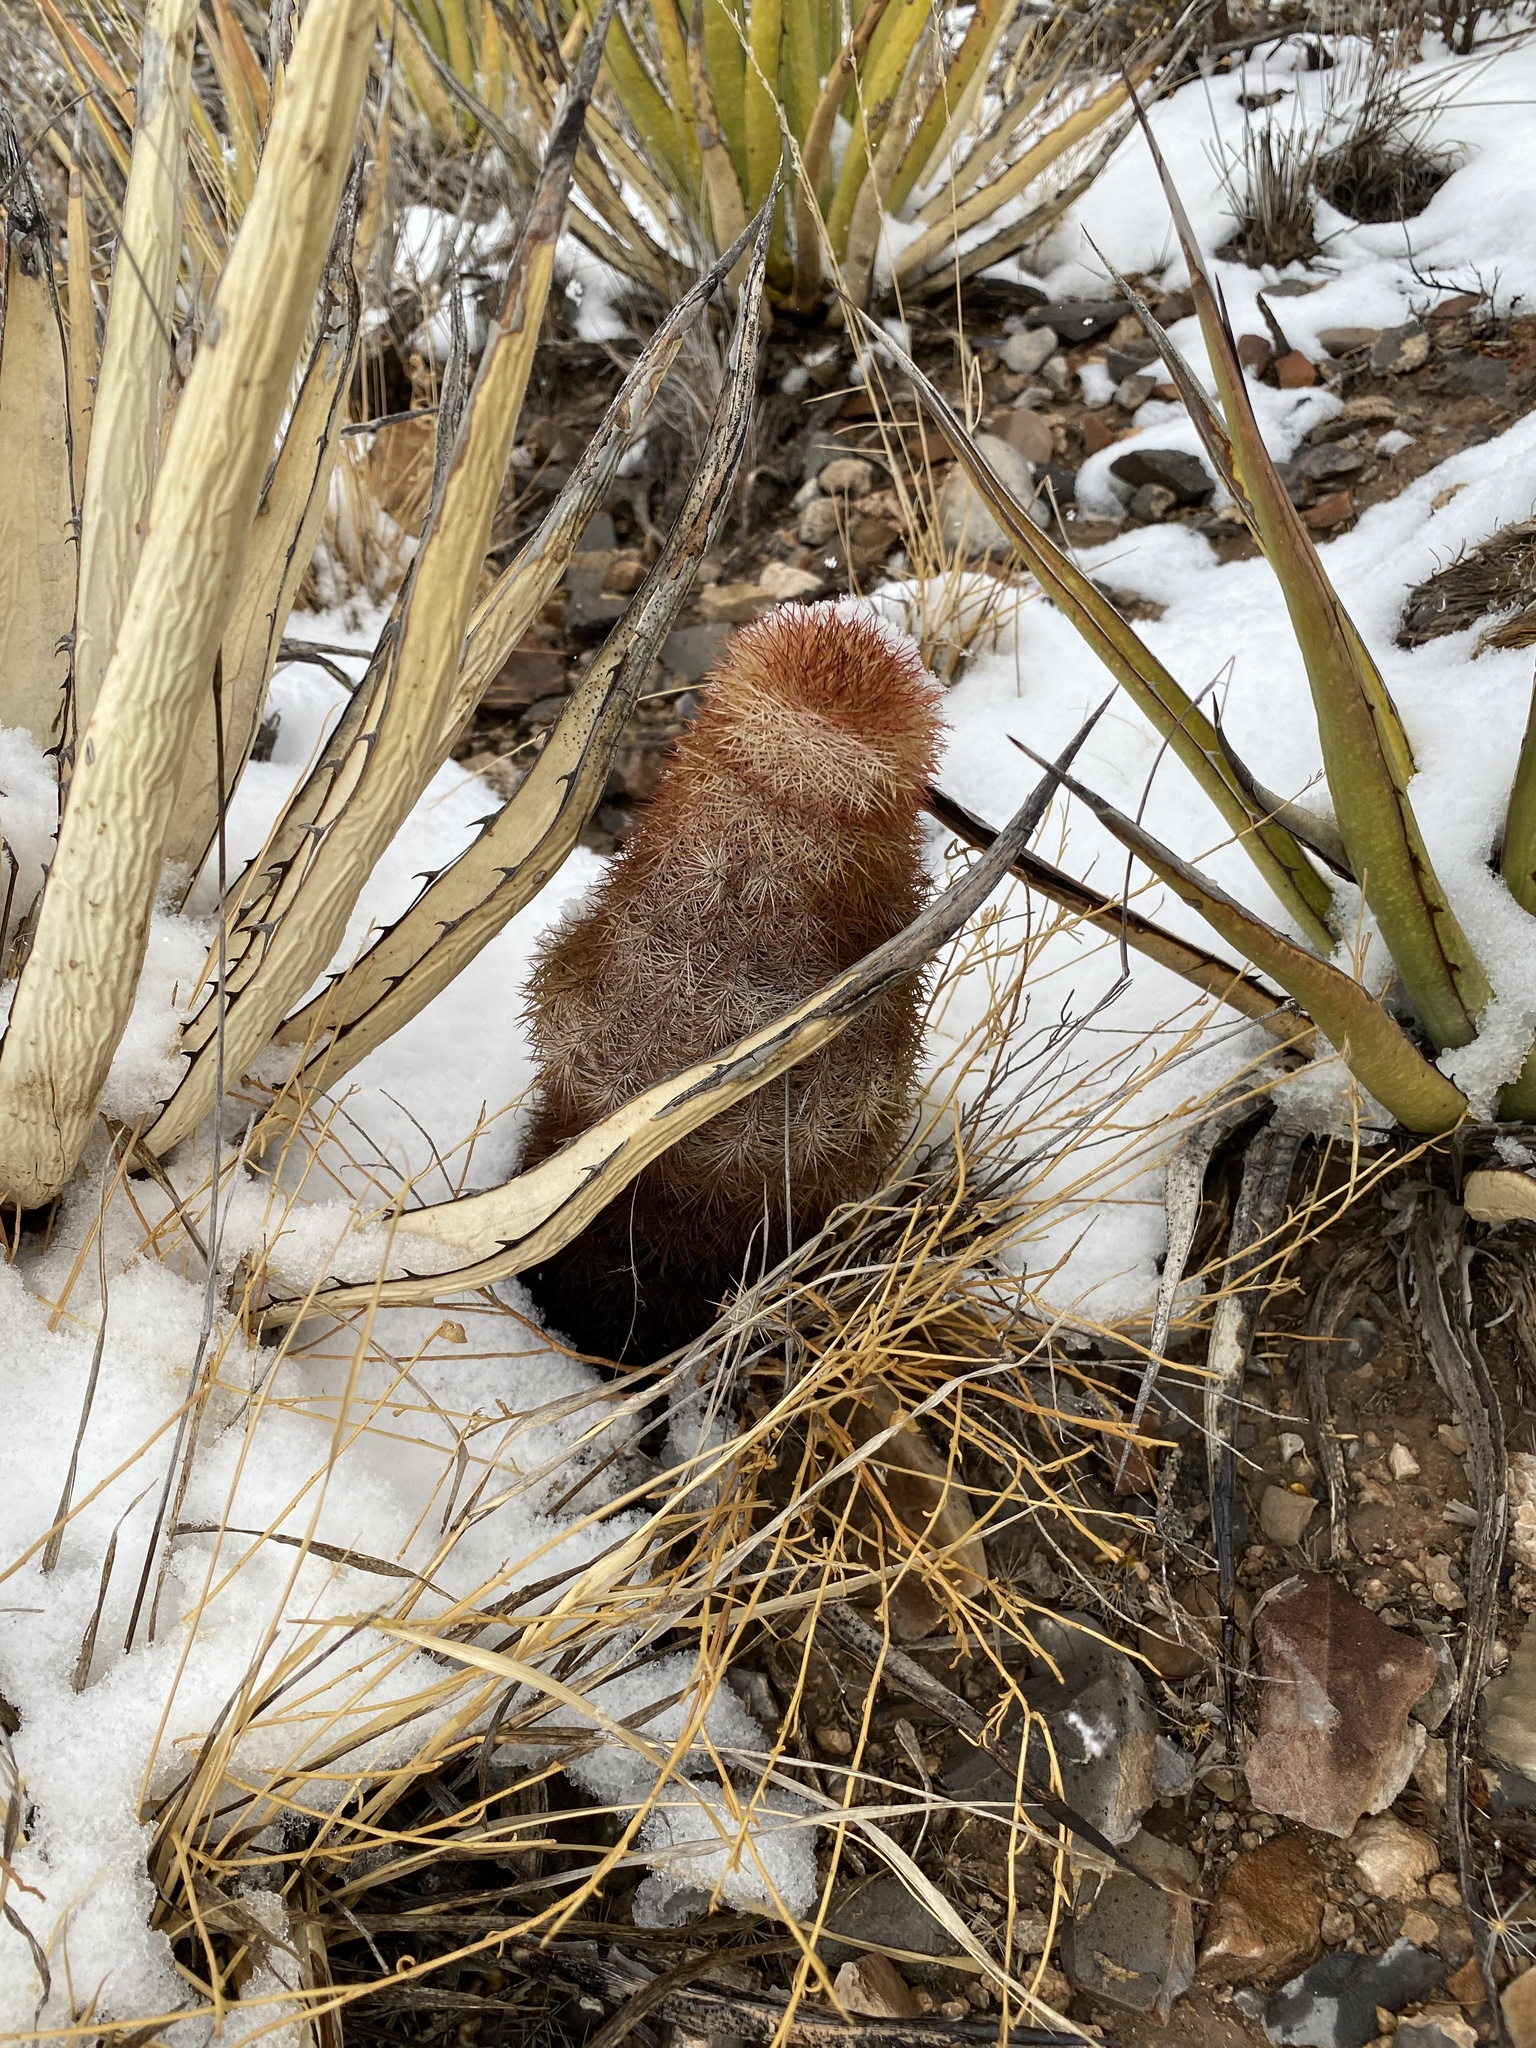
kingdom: Plantae
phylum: Tracheophyta
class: Magnoliopsida
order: Caryophyllales
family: Cactaceae
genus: Echinocereus
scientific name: Echinocereus dasyacanthus
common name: Spiny hedgehog cactus
